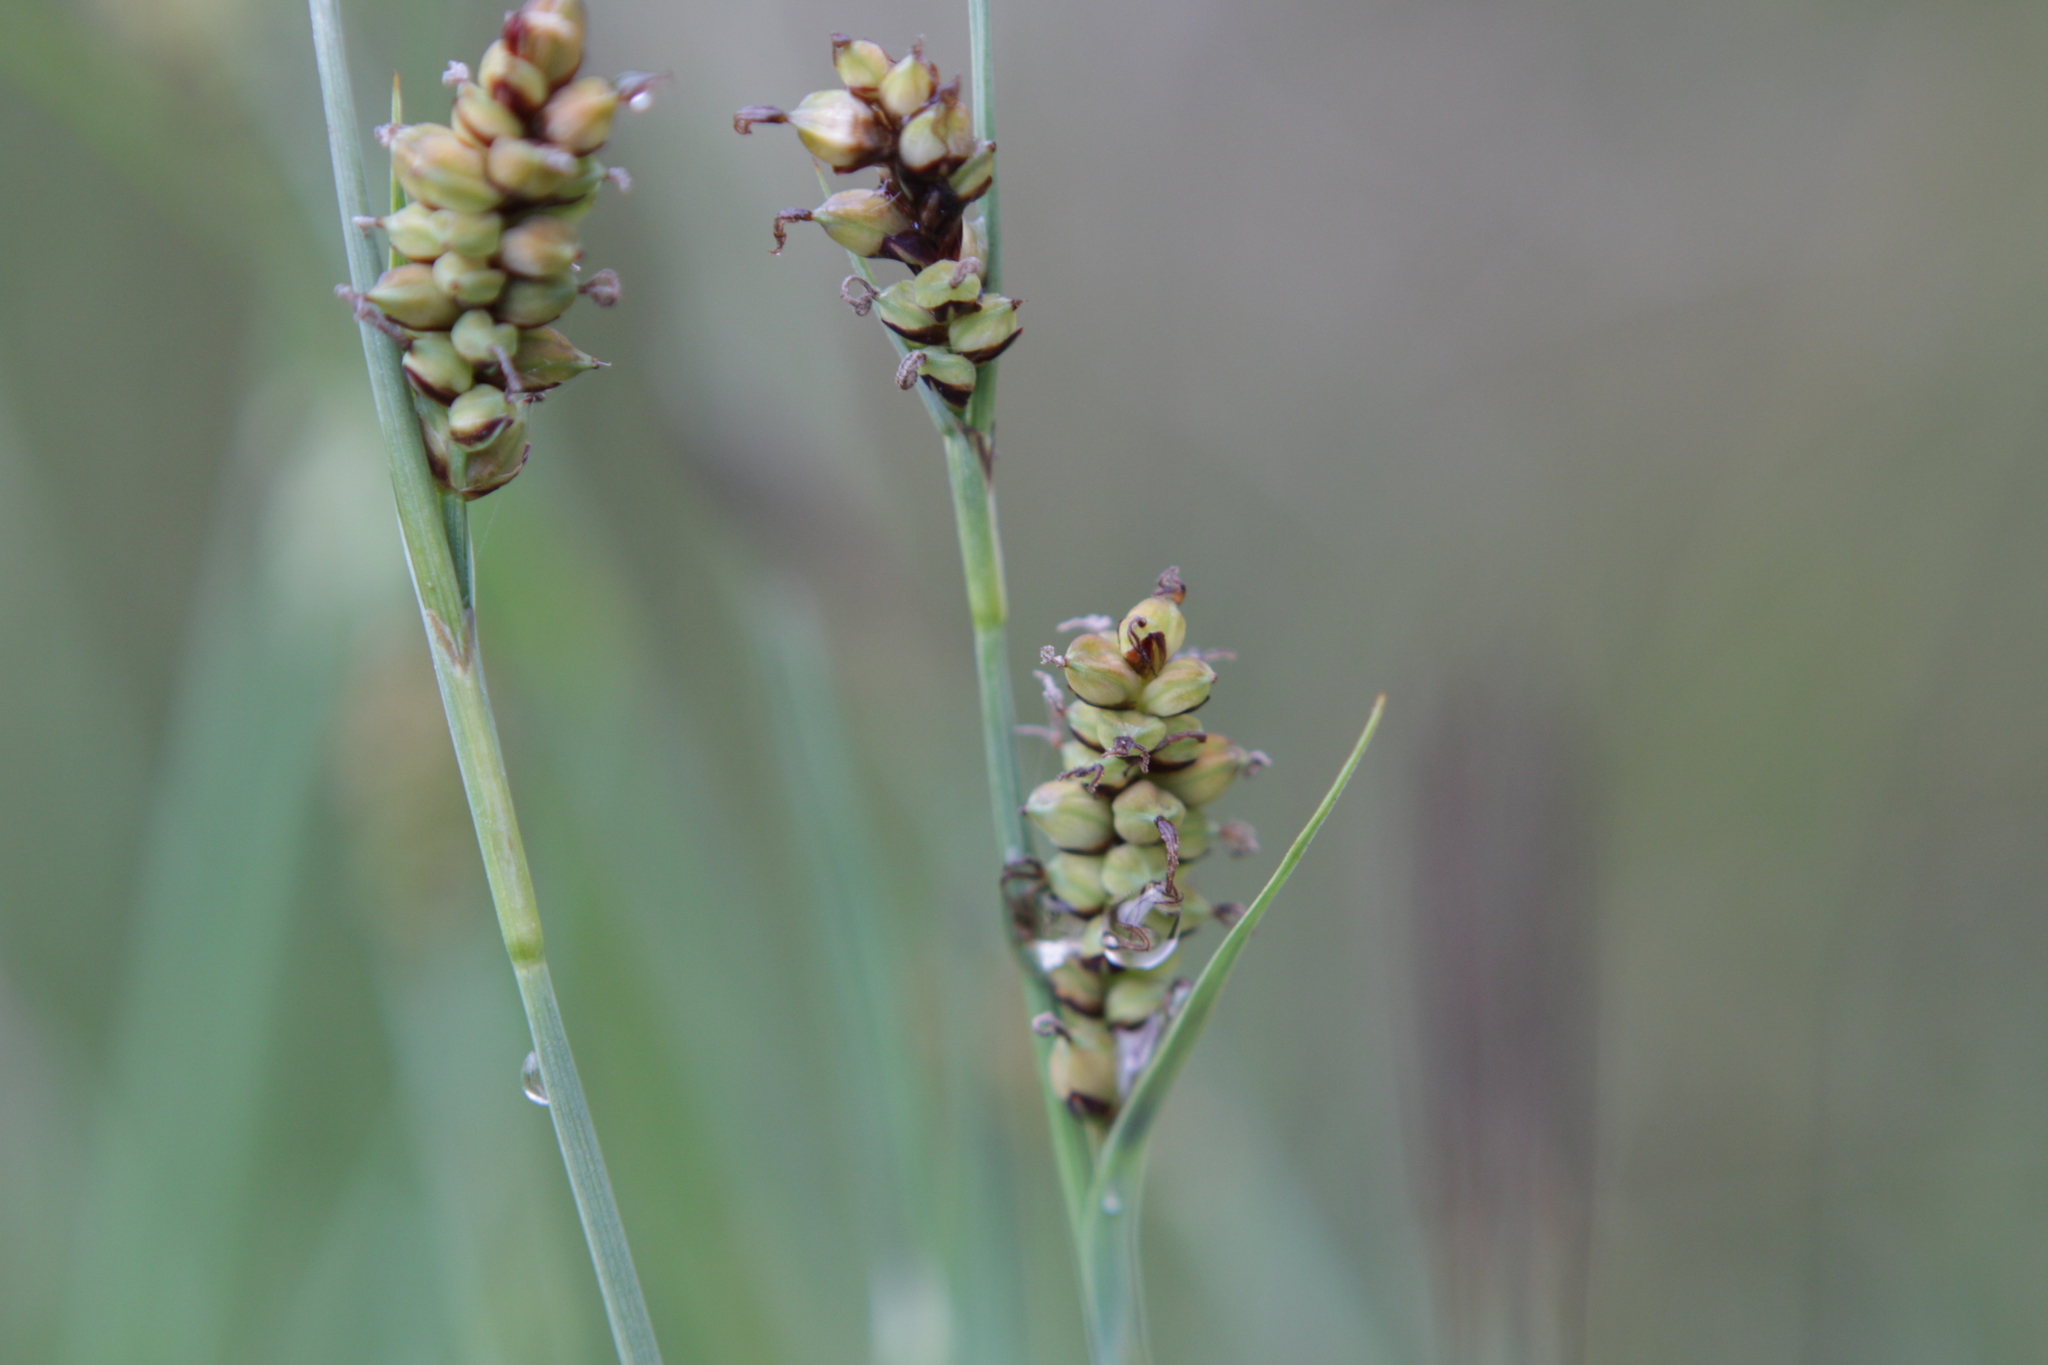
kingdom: Plantae
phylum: Tracheophyta
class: Liliopsida
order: Poales
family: Cyperaceae
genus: Carex
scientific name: Carex panicea
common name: Carnation sedge
